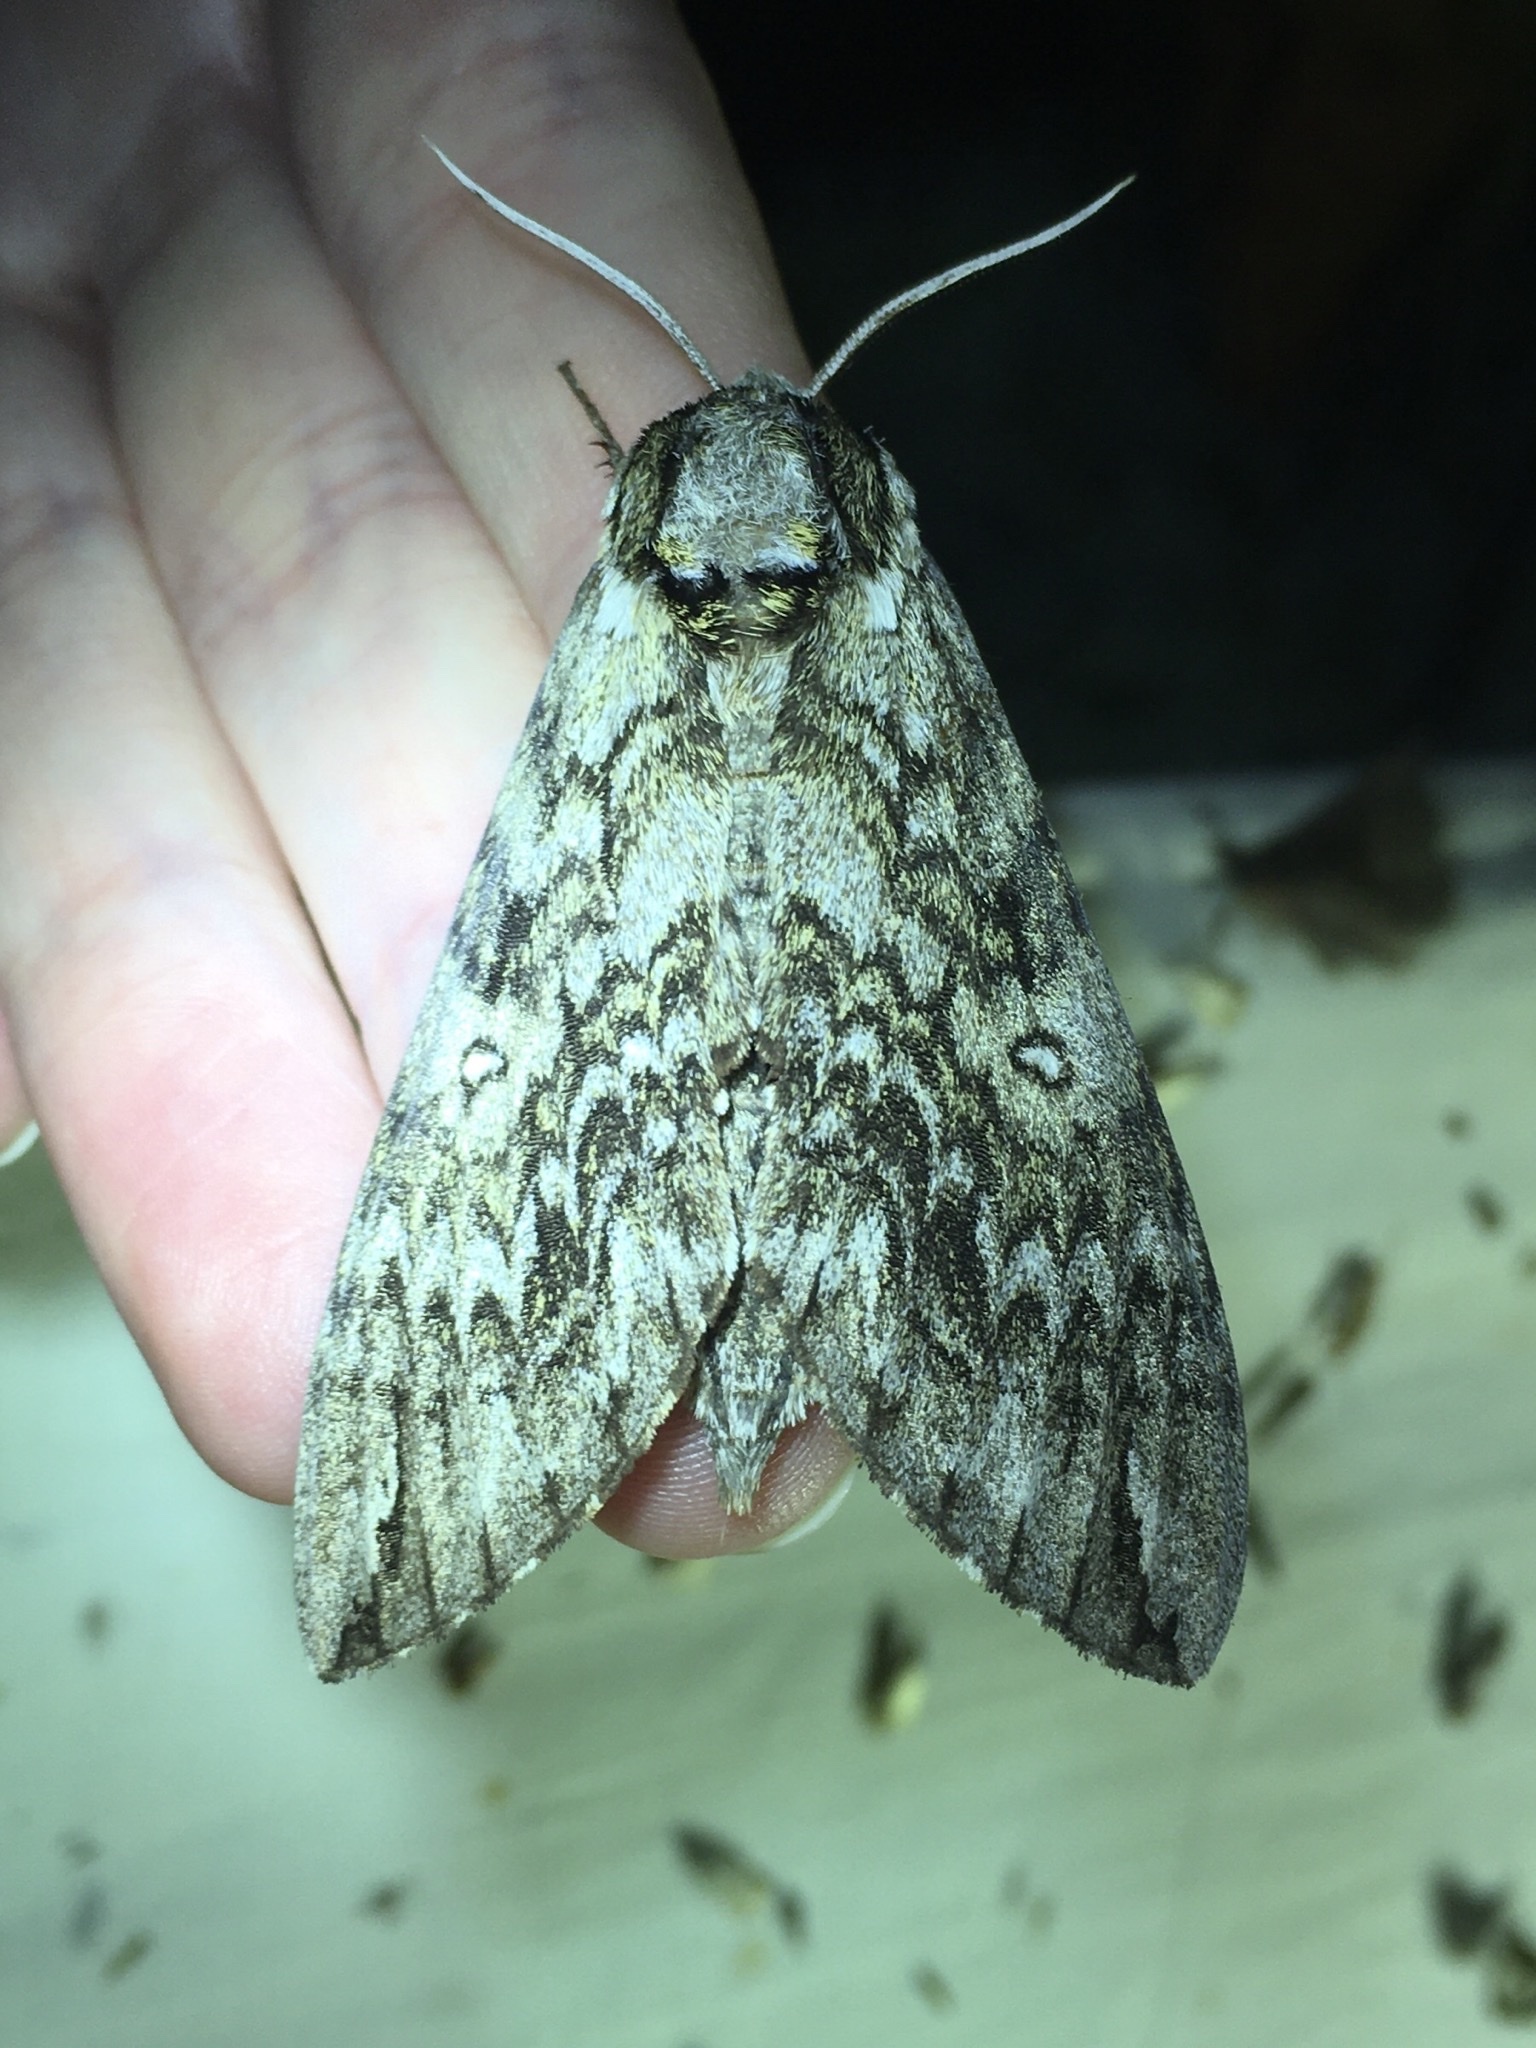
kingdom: Animalia
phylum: Arthropoda
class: Insecta
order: Lepidoptera
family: Sphingidae
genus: Ceratomia
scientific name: Ceratomia undulosa
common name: Waved sphinx
